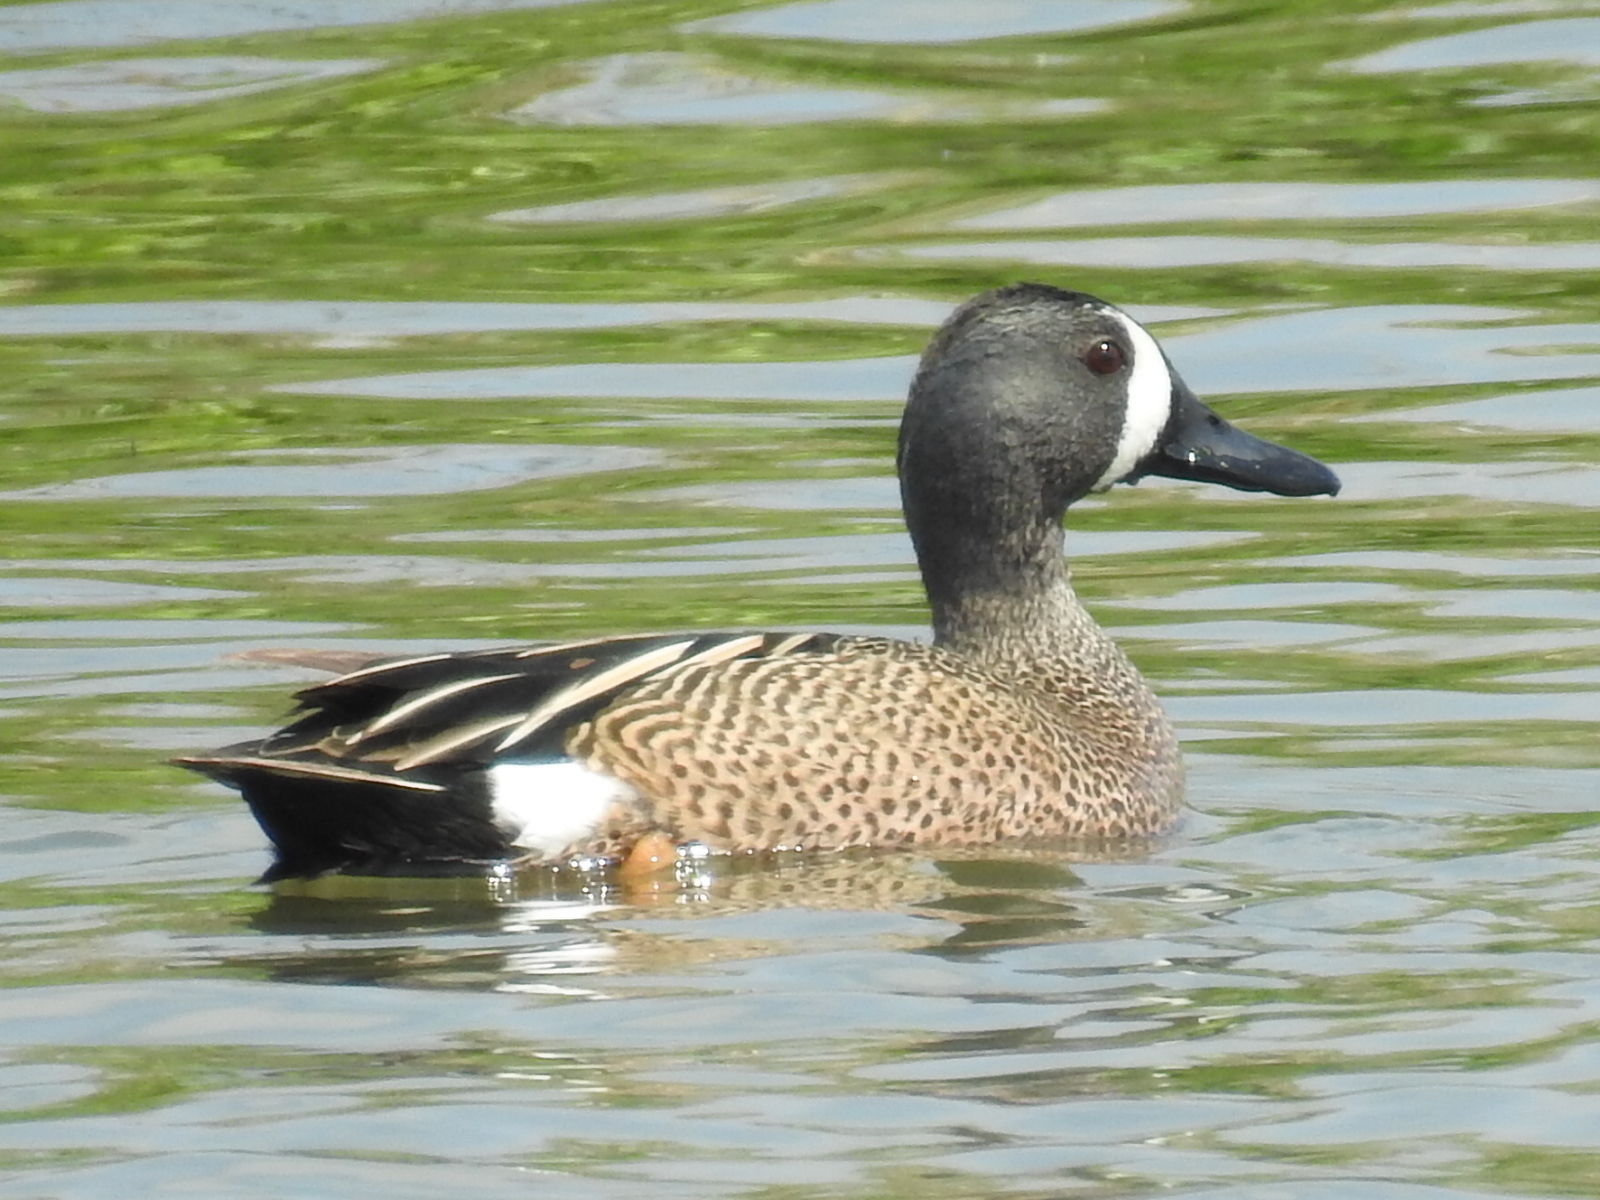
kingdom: Animalia
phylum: Chordata
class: Aves
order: Anseriformes
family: Anatidae
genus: Spatula
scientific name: Spatula discors
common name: Blue-winged teal
